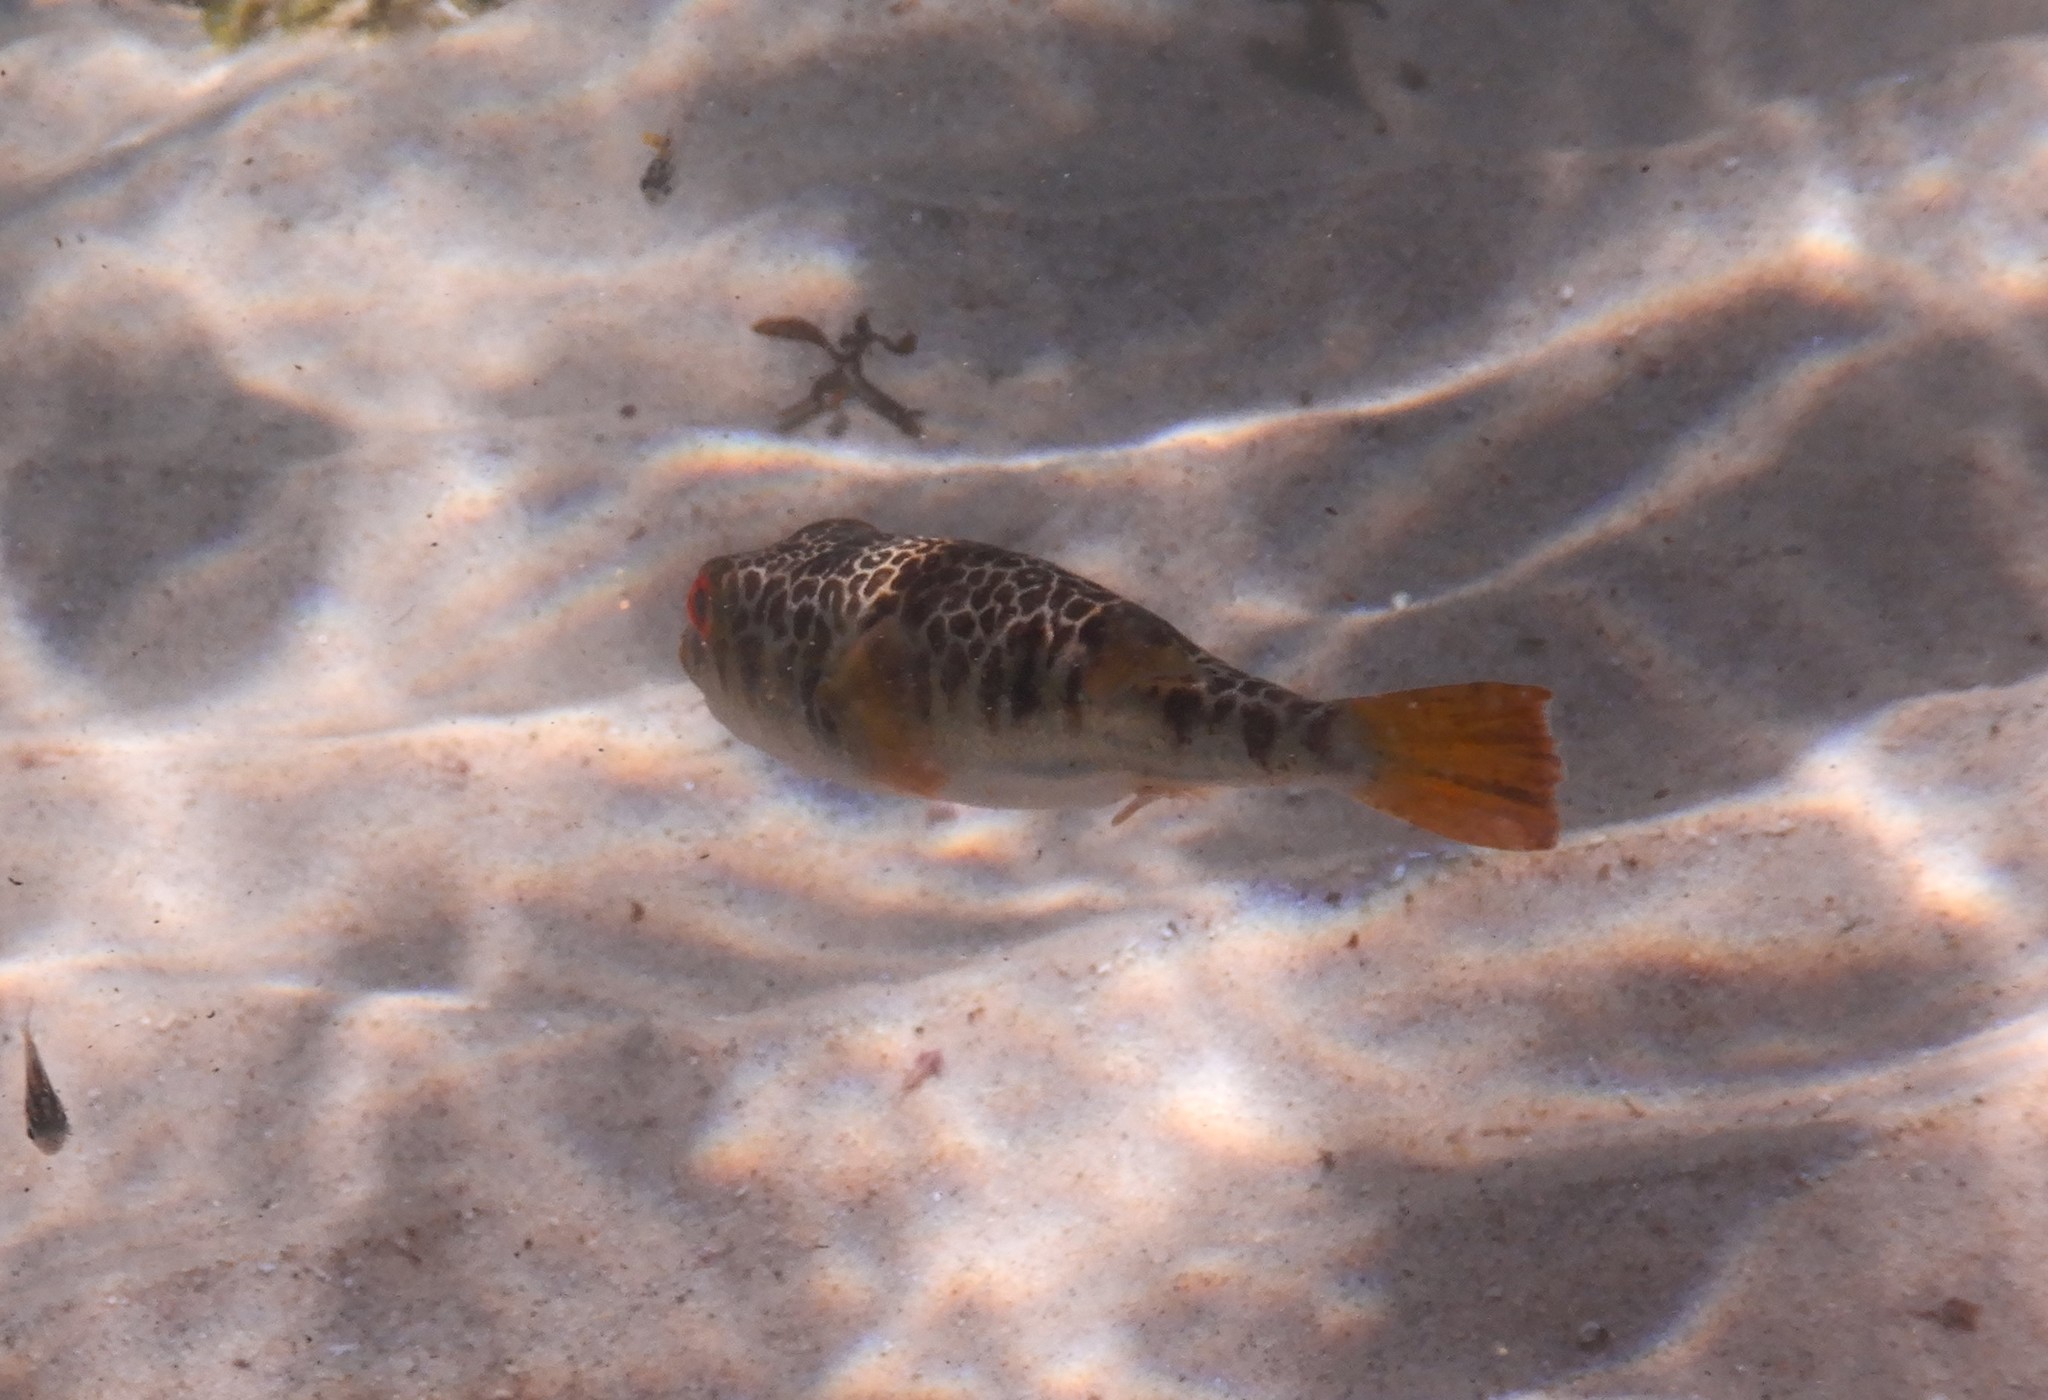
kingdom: Animalia
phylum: Chordata
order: Tetraodontiformes
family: Tetraodontidae
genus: Tetractenos
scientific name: Tetractenos glaber
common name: Smooth toadfish
